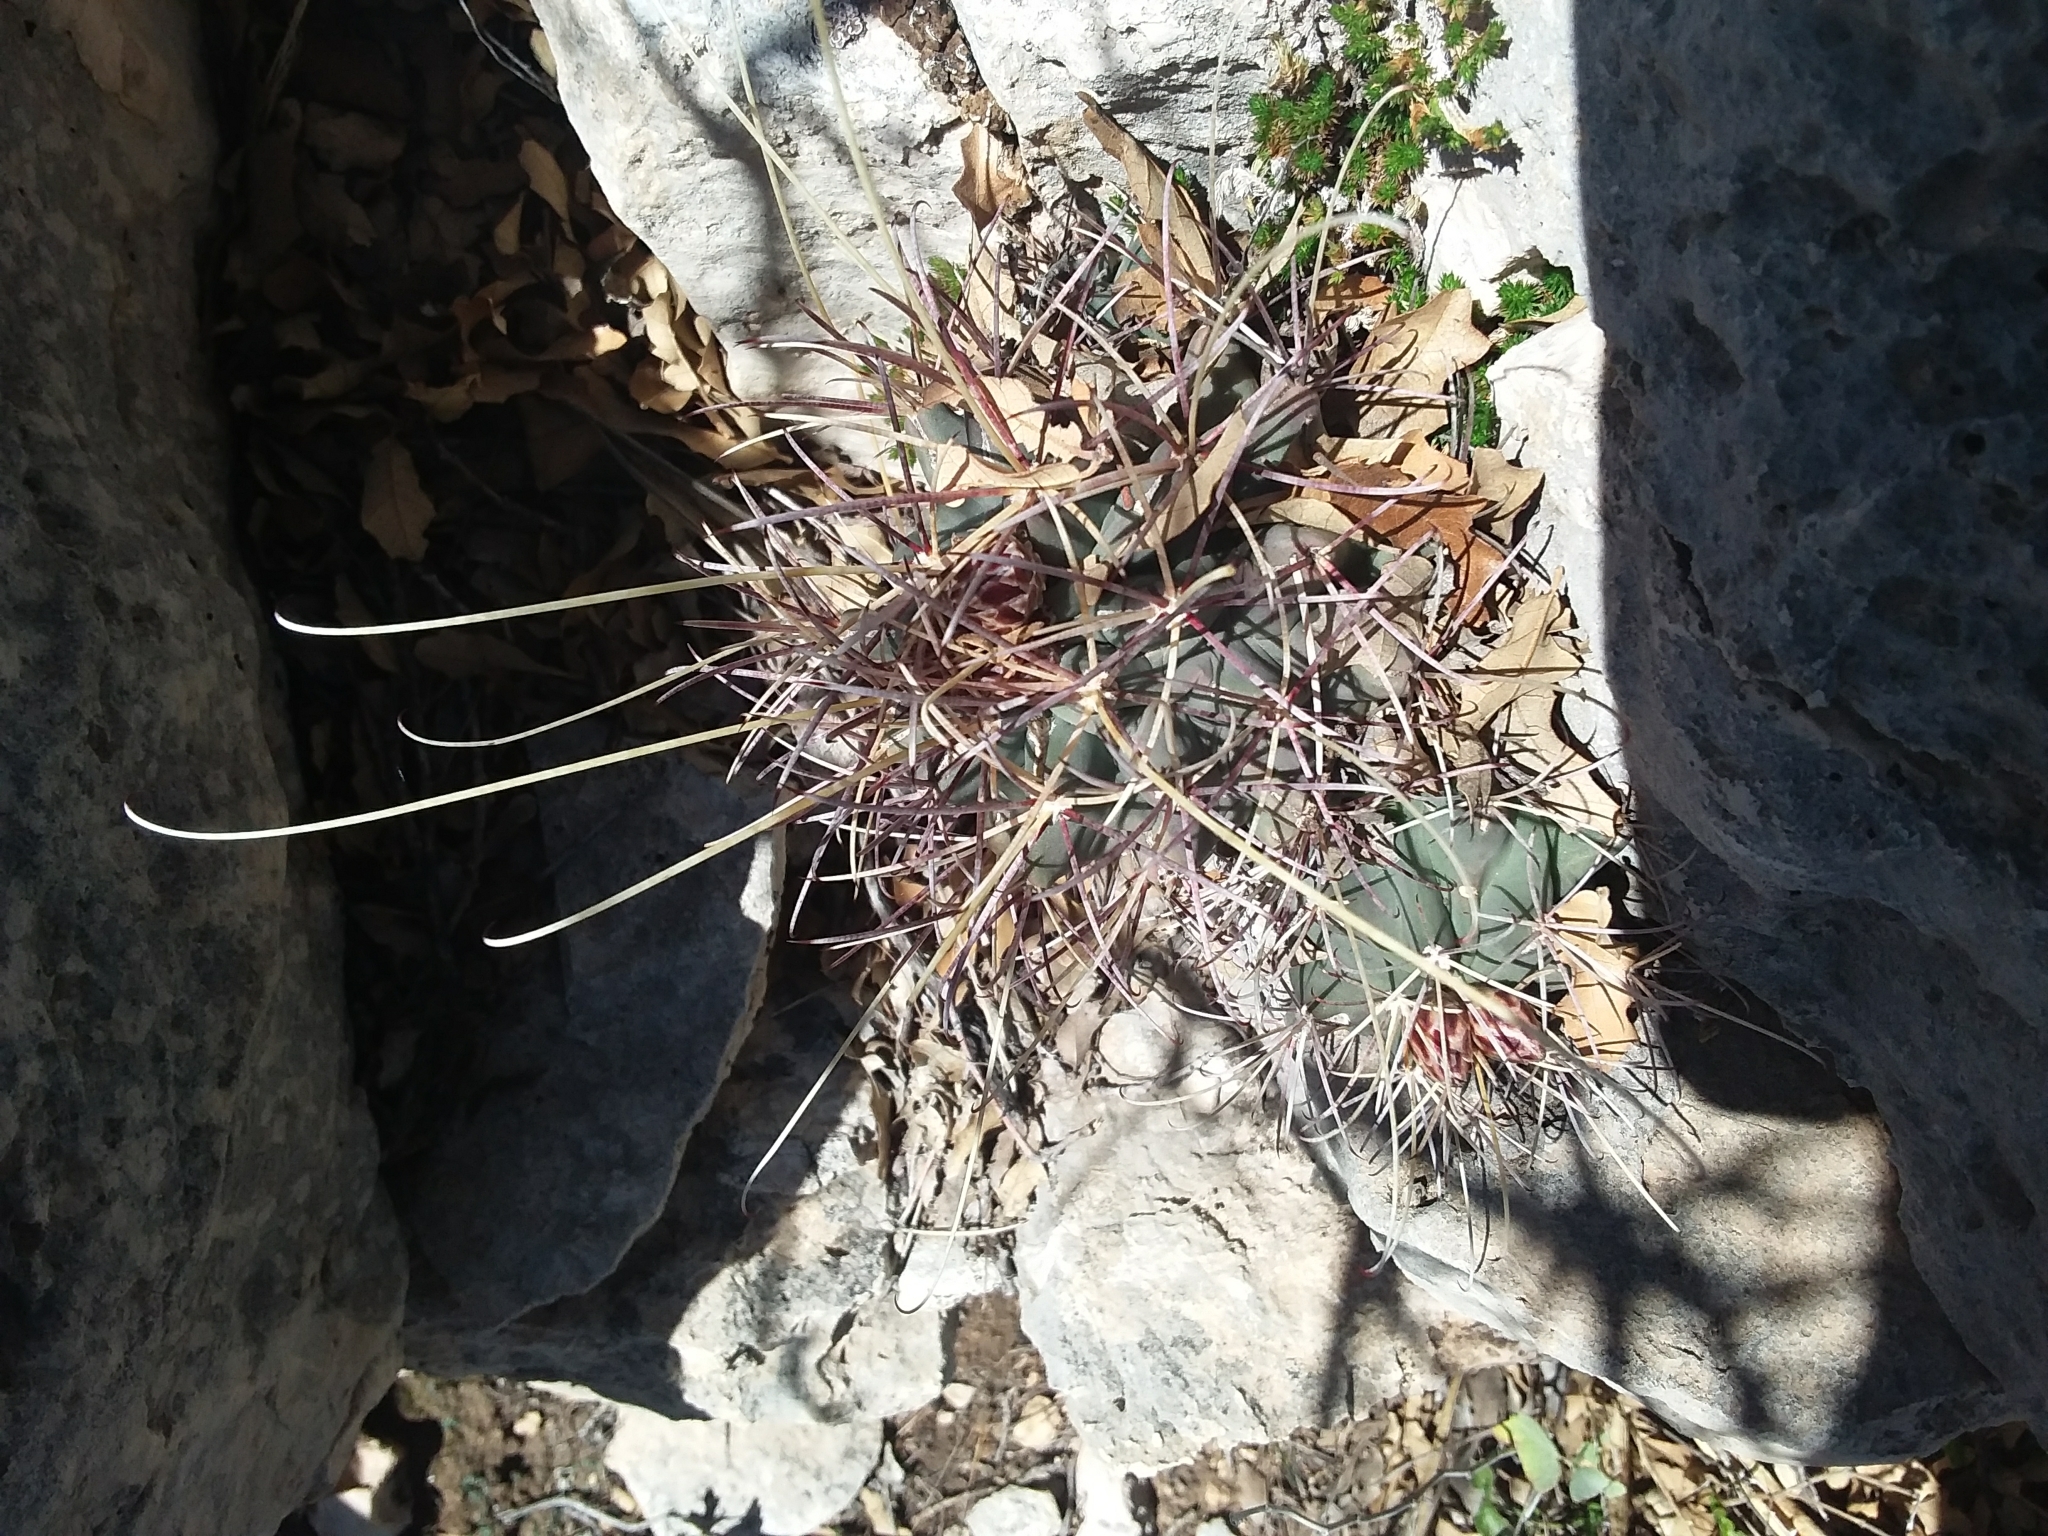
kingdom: Plantae
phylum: Tracheophyta
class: Magnoliopsida
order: Caryophyllales
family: Cactaceae
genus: Ferocactus
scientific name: Ferocactus uncinatus
